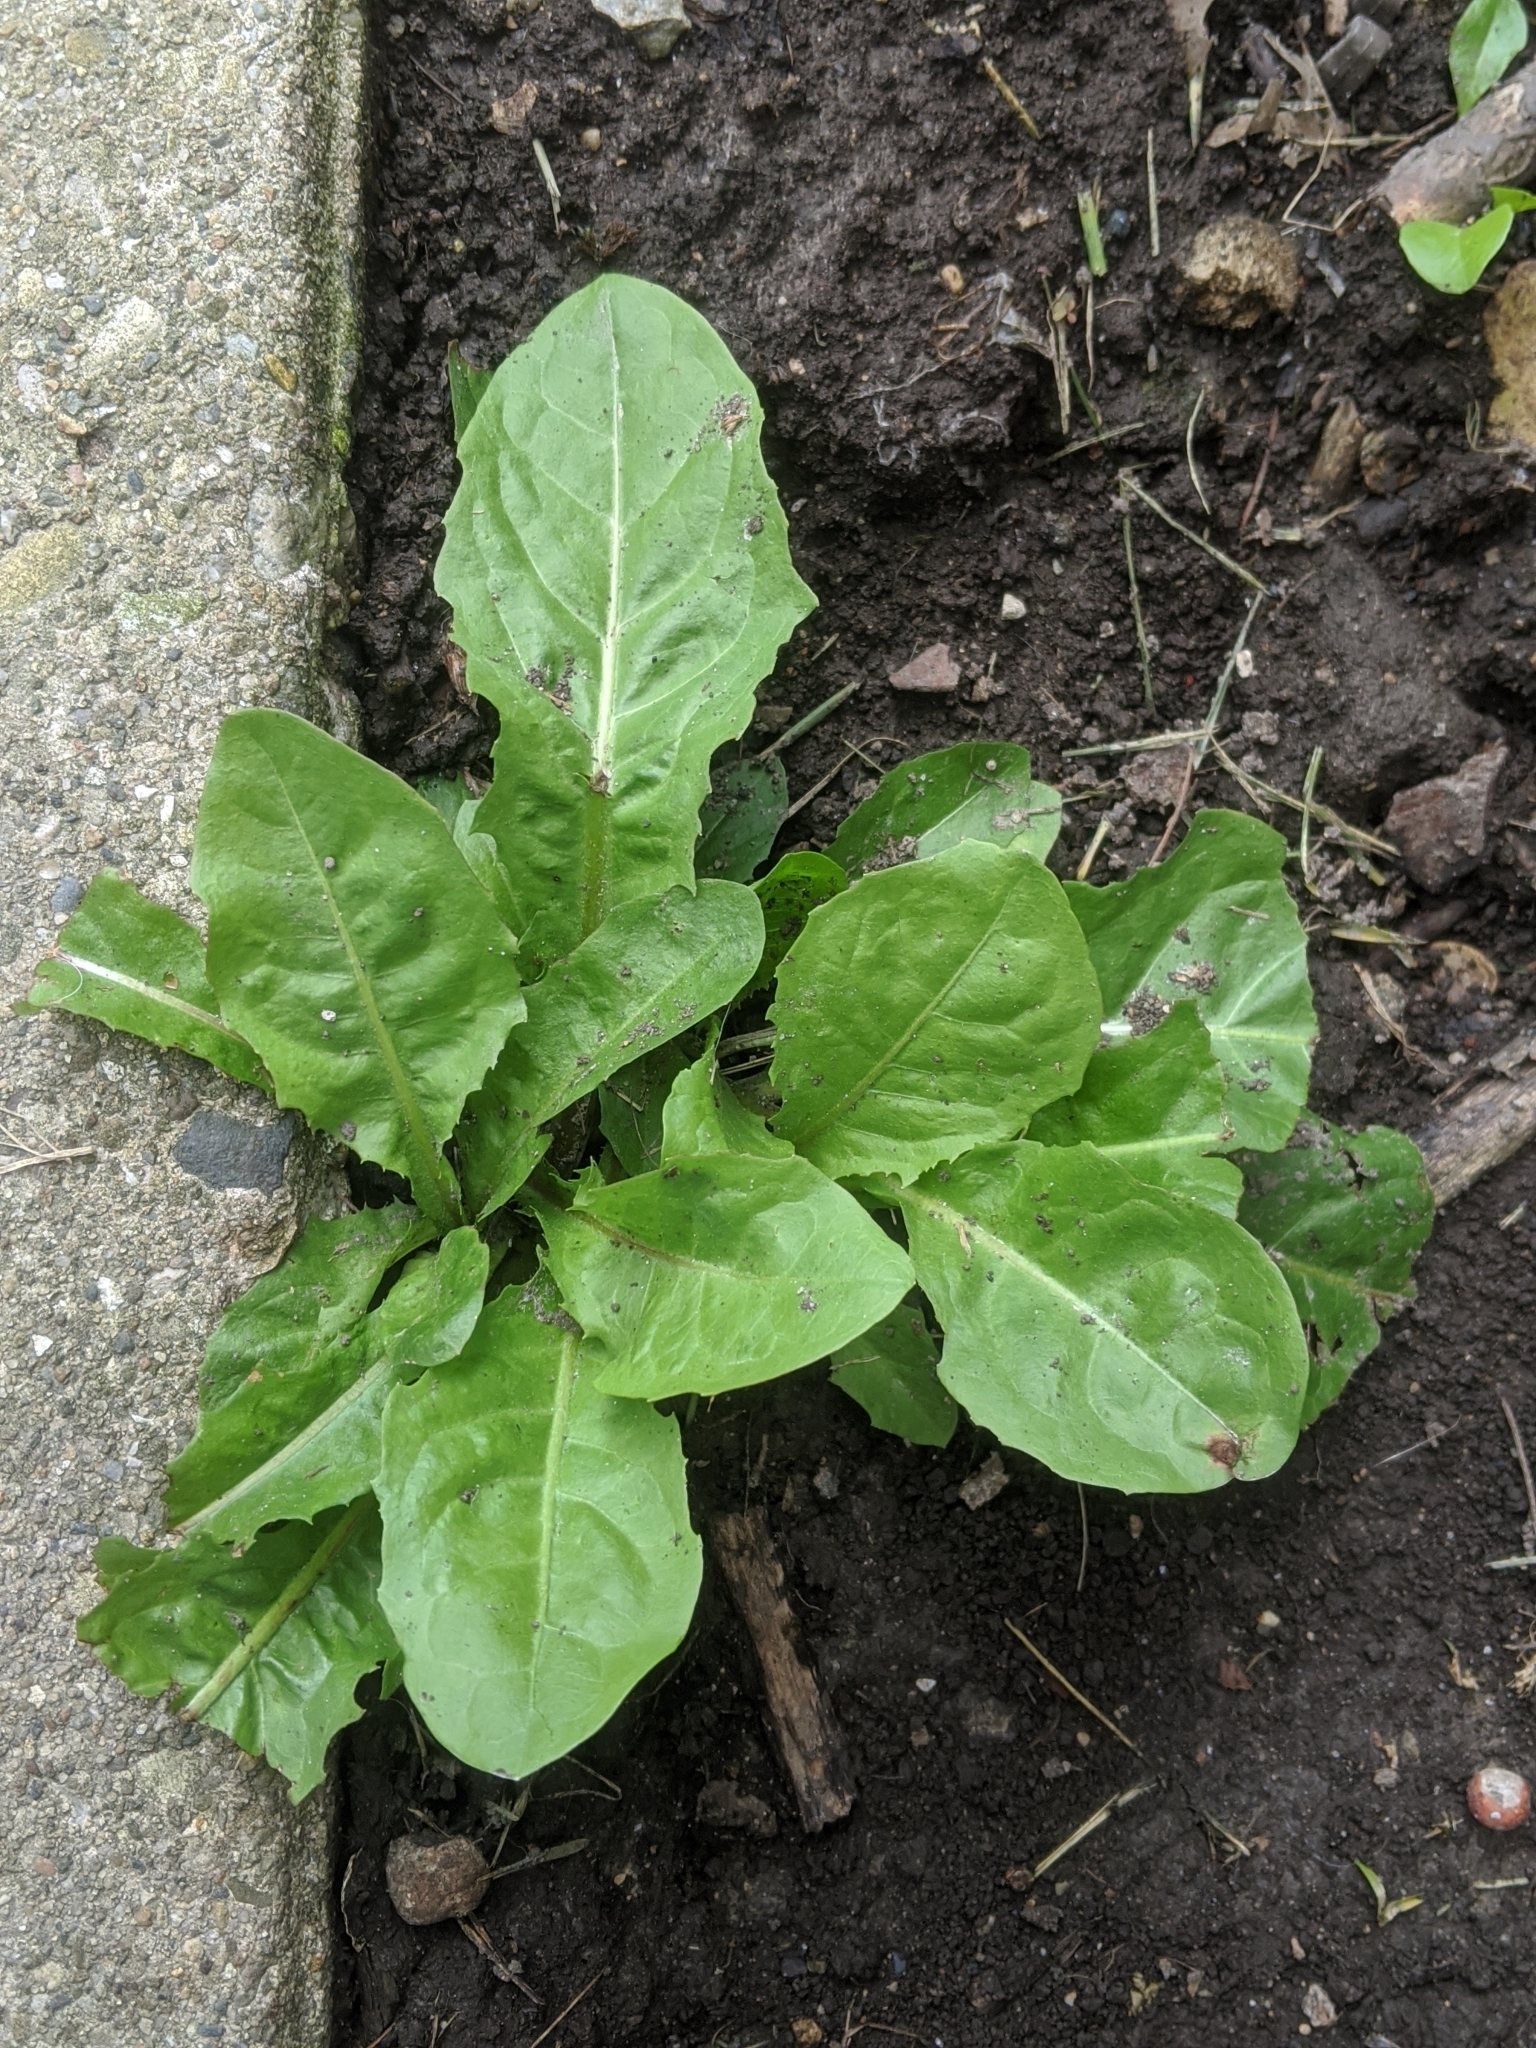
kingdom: Plantae
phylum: Tracheophyta
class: Magnoliopsida
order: Asterales
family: Asteraceae
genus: Taraxacum
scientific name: Taraxacum officinale
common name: Common dandelion
